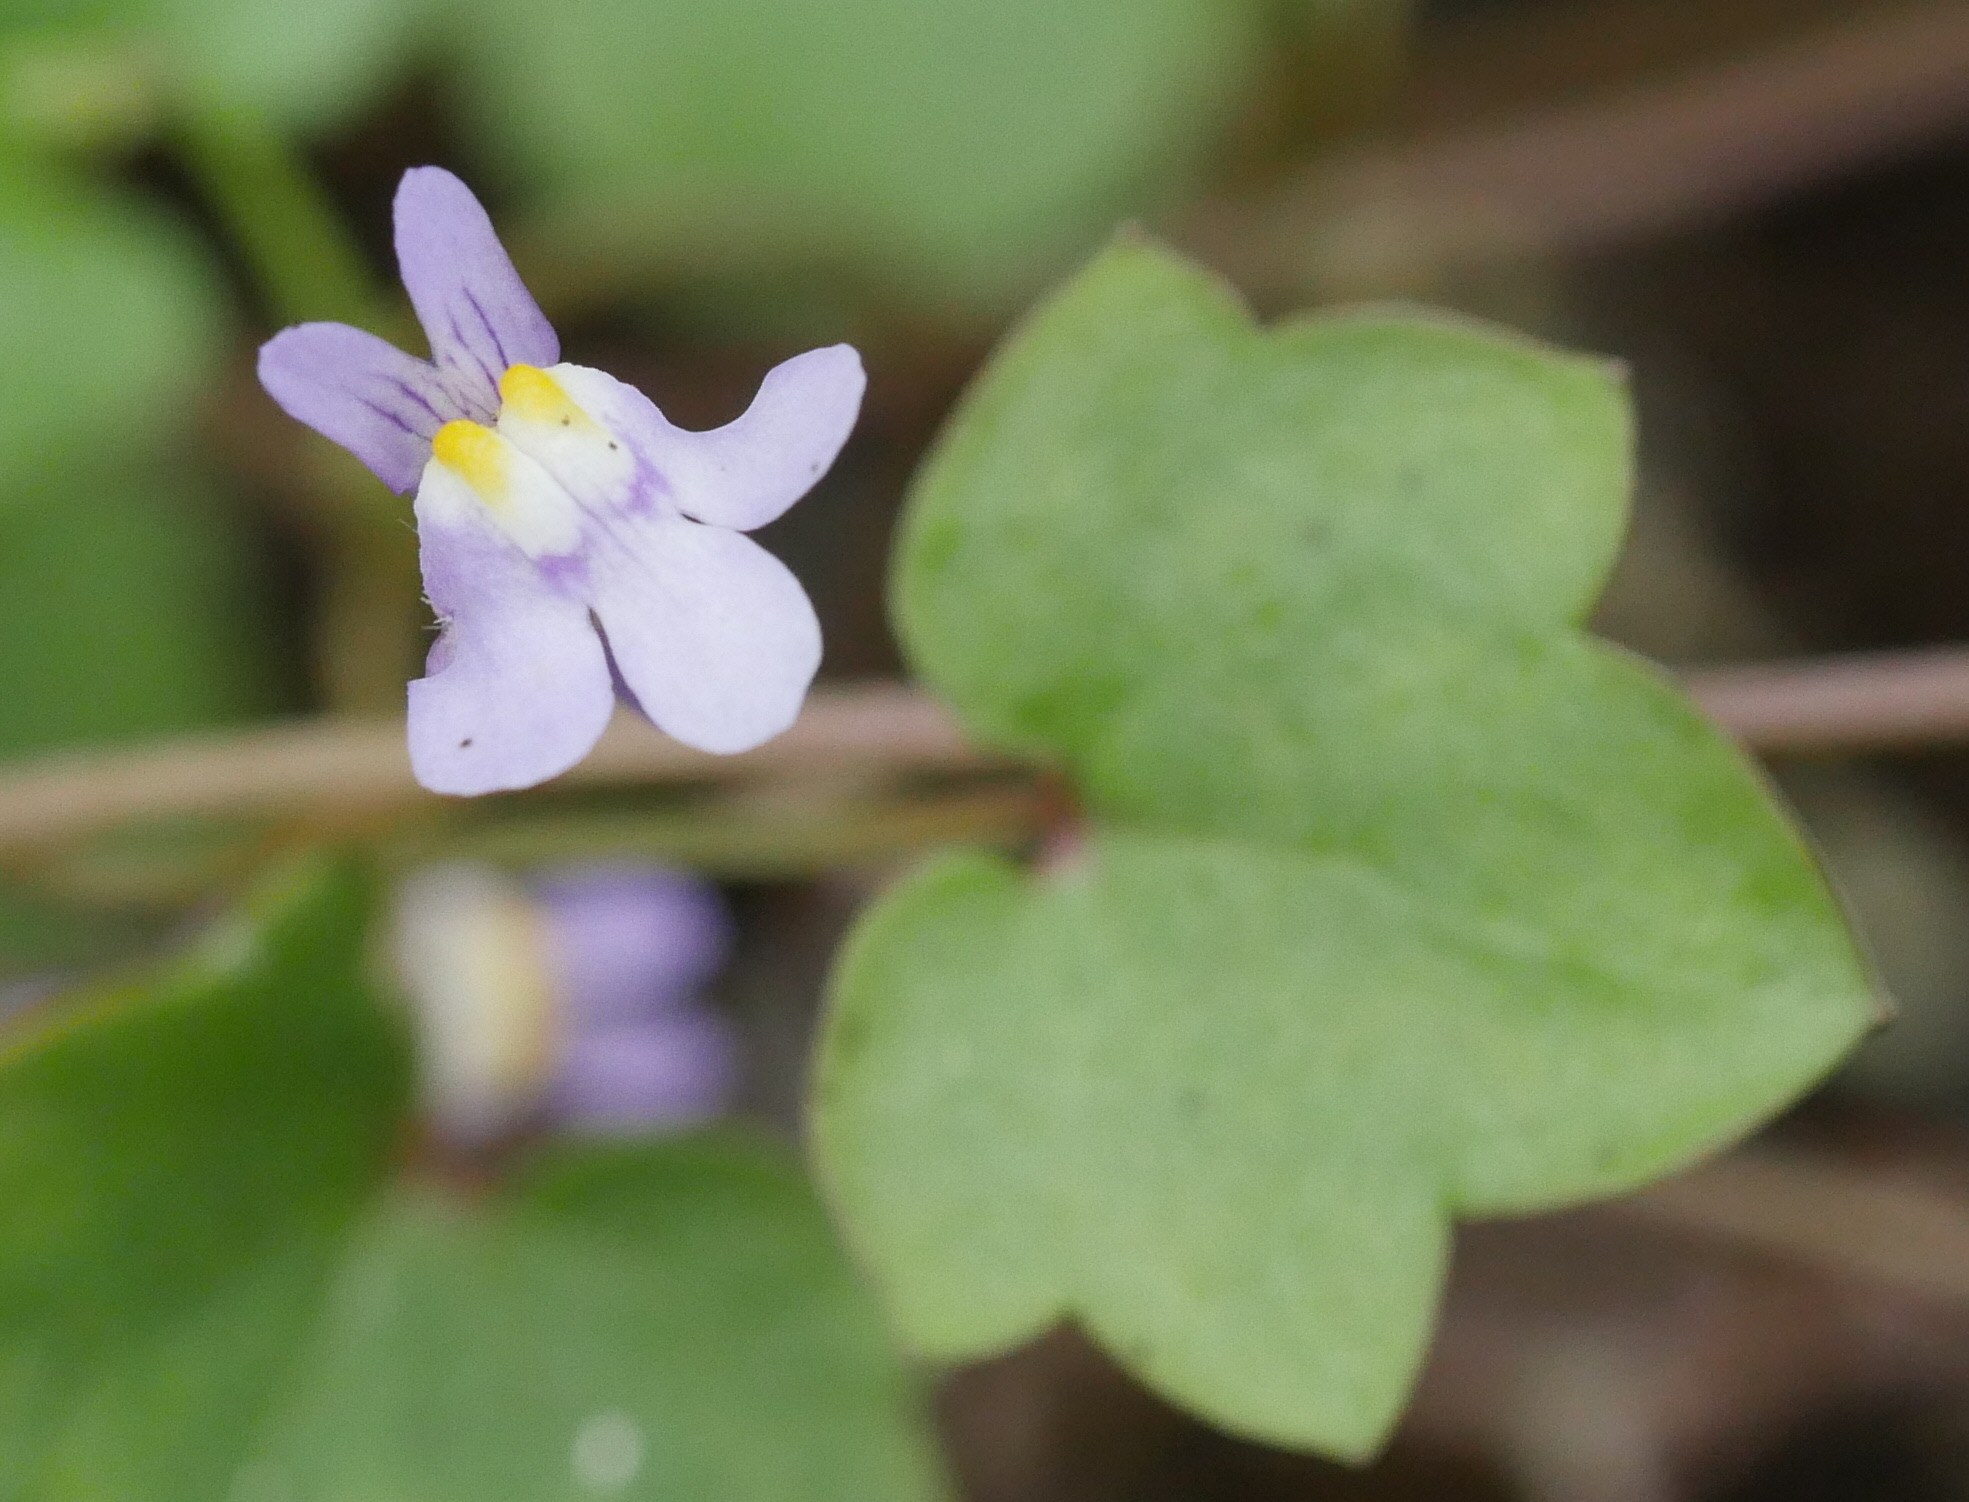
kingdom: Plantae
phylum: Tracheophyta
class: Magnoliopsida
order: Lamiales
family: Plantaginaceae
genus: Cymbalaria
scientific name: Cymbalaria muralis
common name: Ivy-leaved toadflax
